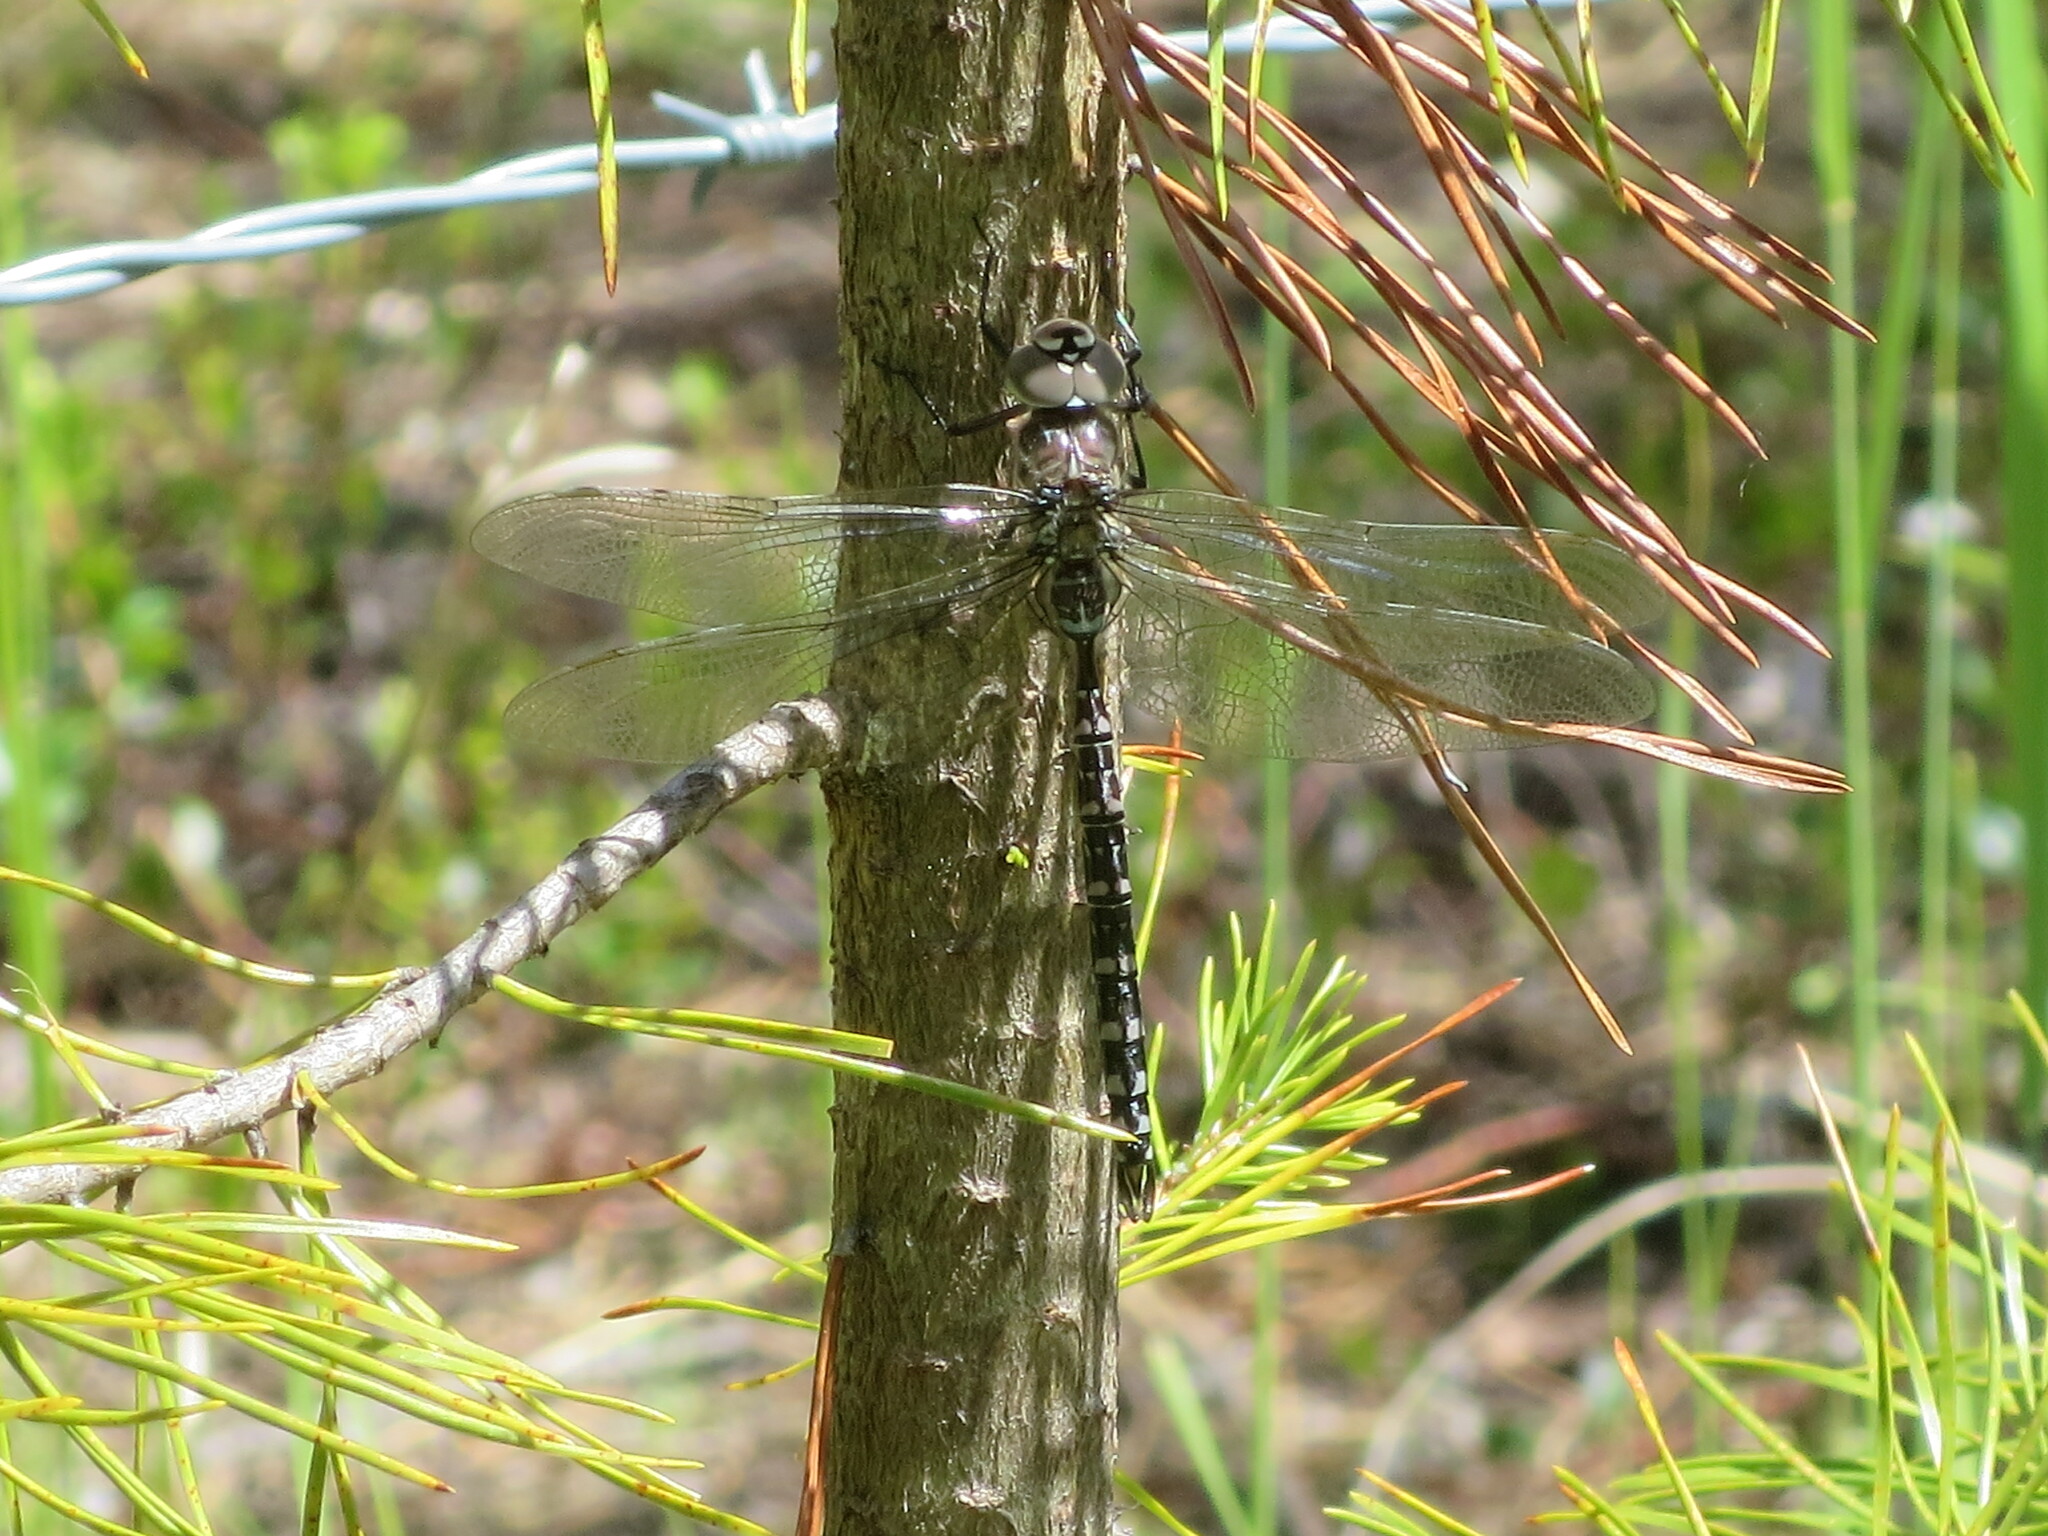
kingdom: Animalia
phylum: Arthropoda
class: Insecta
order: Odonata
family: Aeshnidae
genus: Aeshna
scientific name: Aeshna interrupta
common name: Variable darner
